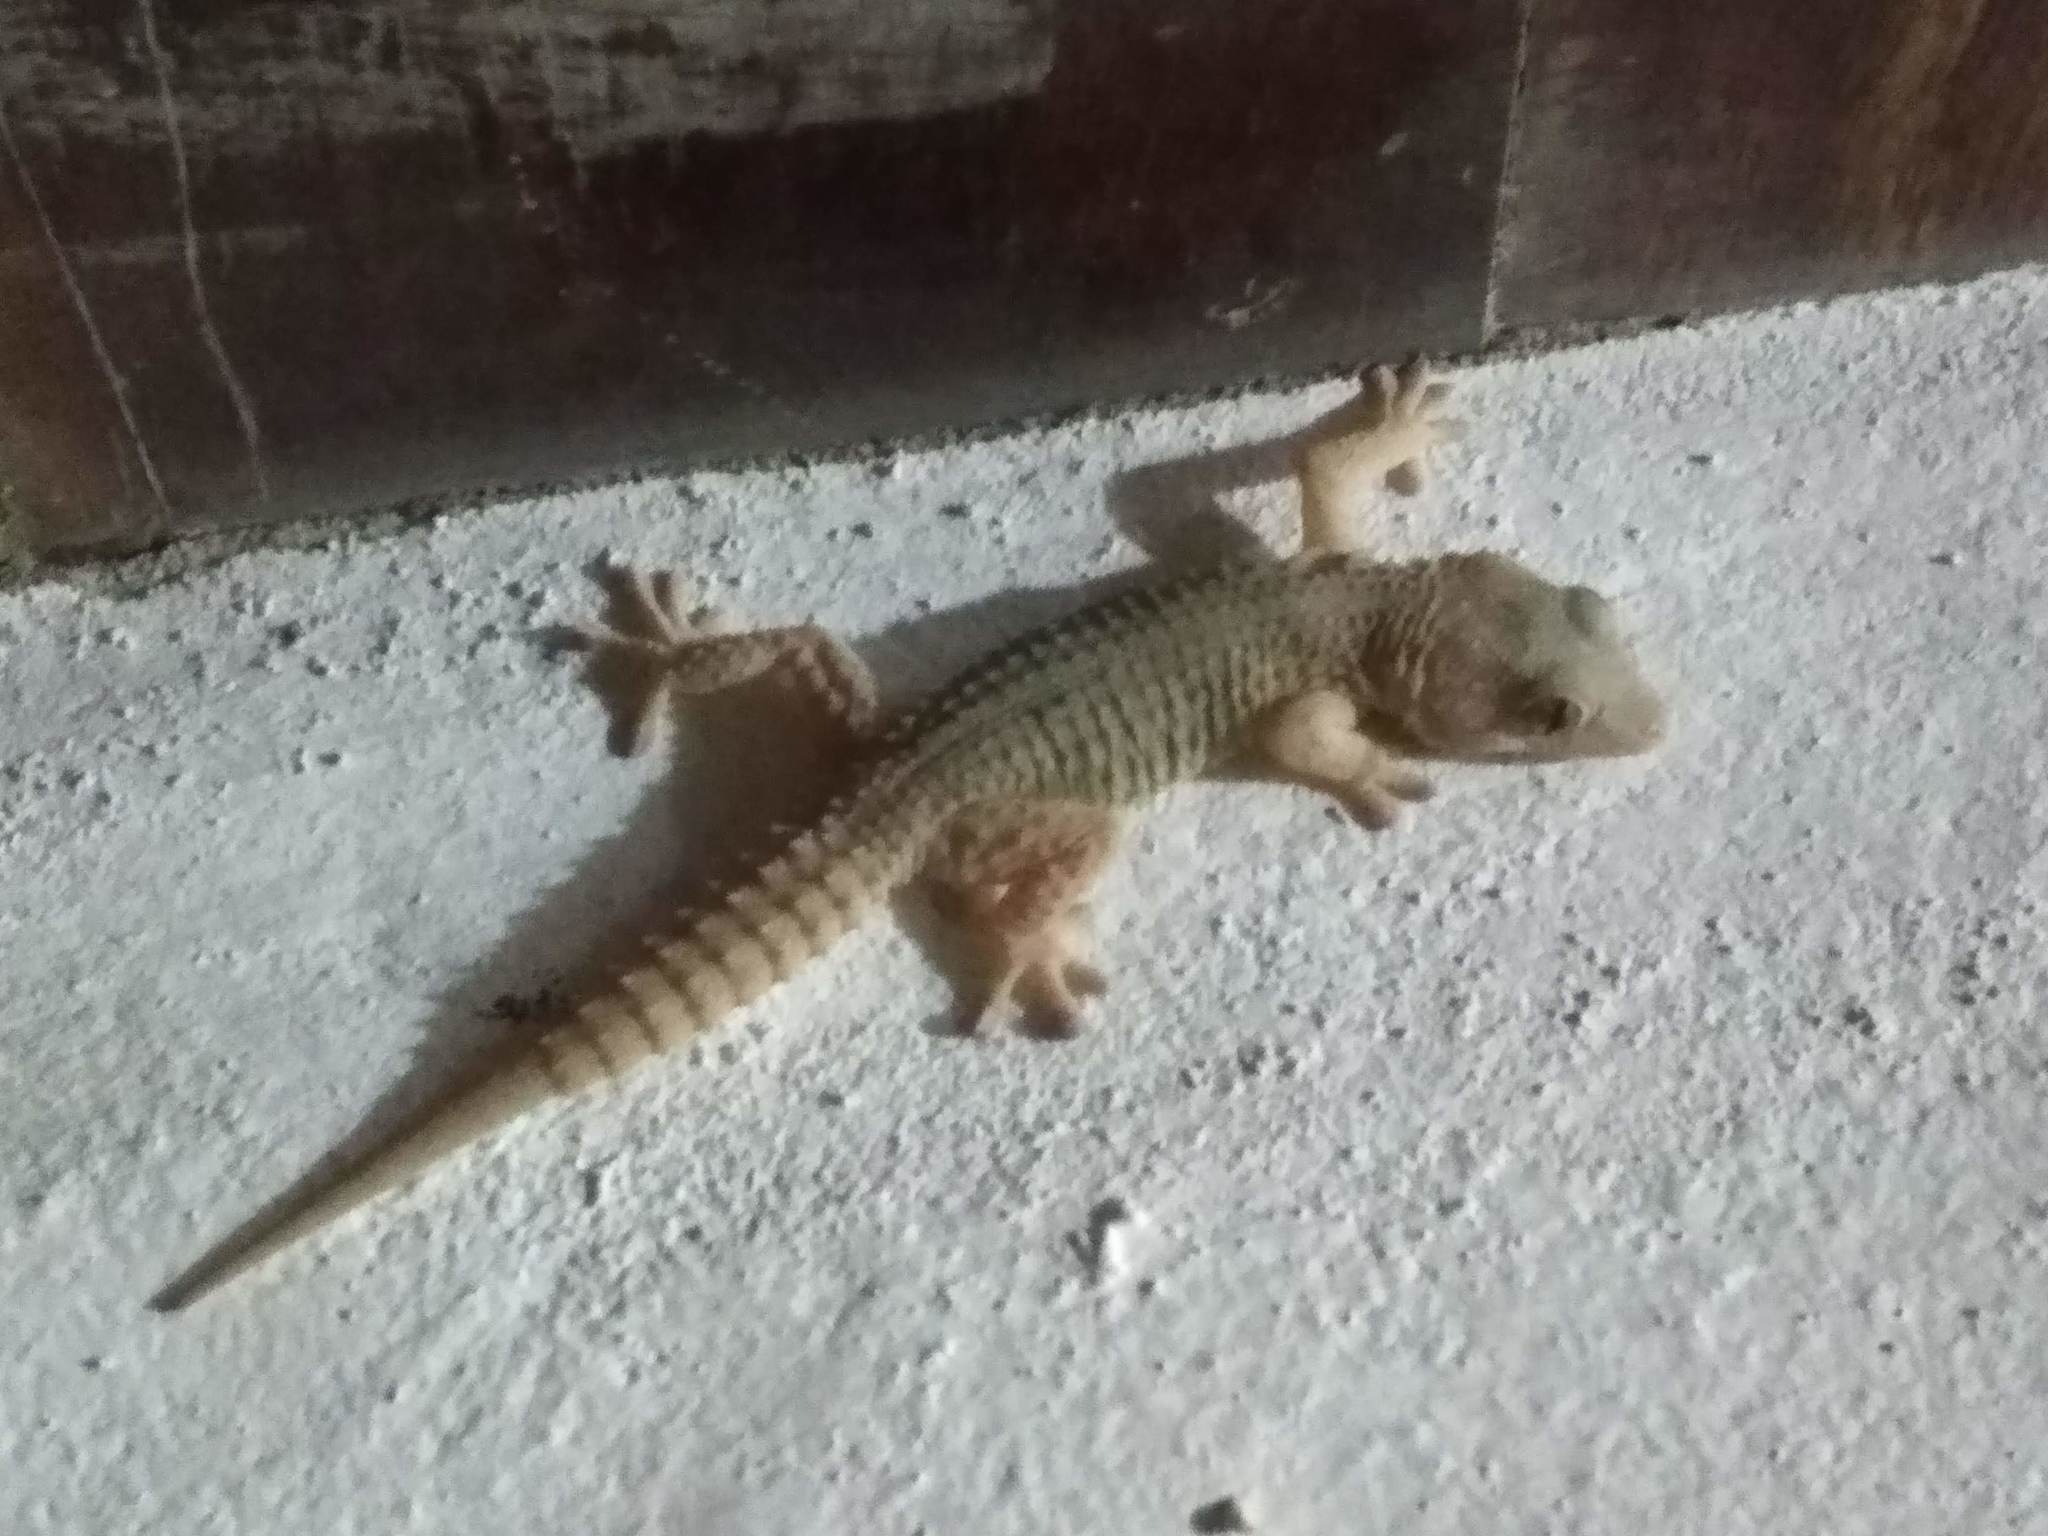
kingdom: Animalia
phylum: Chordata
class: Squamata
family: Phyllodactylidae
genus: Tarentola
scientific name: Tarentola angustimentalis
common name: East canary gecko
